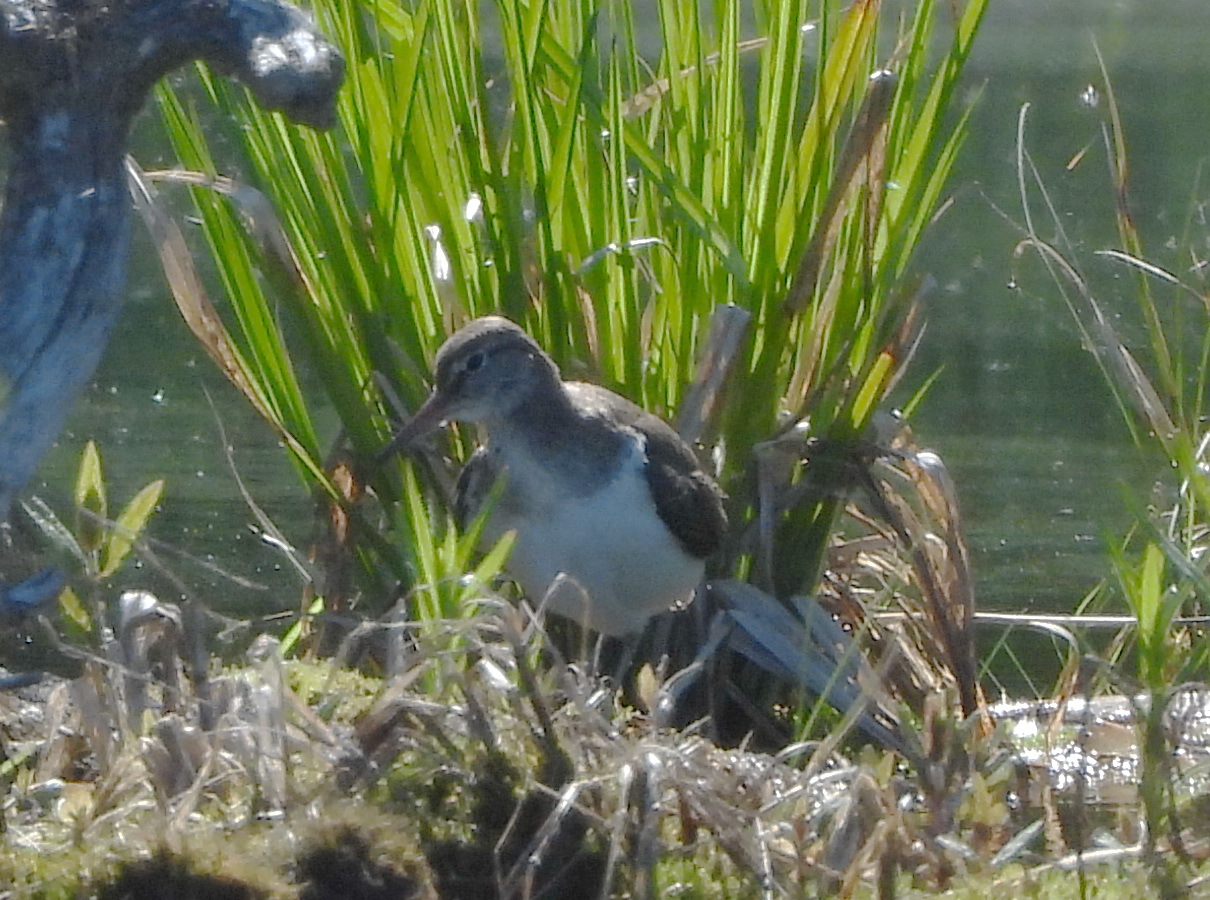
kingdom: Animalia
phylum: Chordata
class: Aves
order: Charadriiformes
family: Scolopacidae
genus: Actitis
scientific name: Actitis hypoleucos
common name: Common sandpiper
